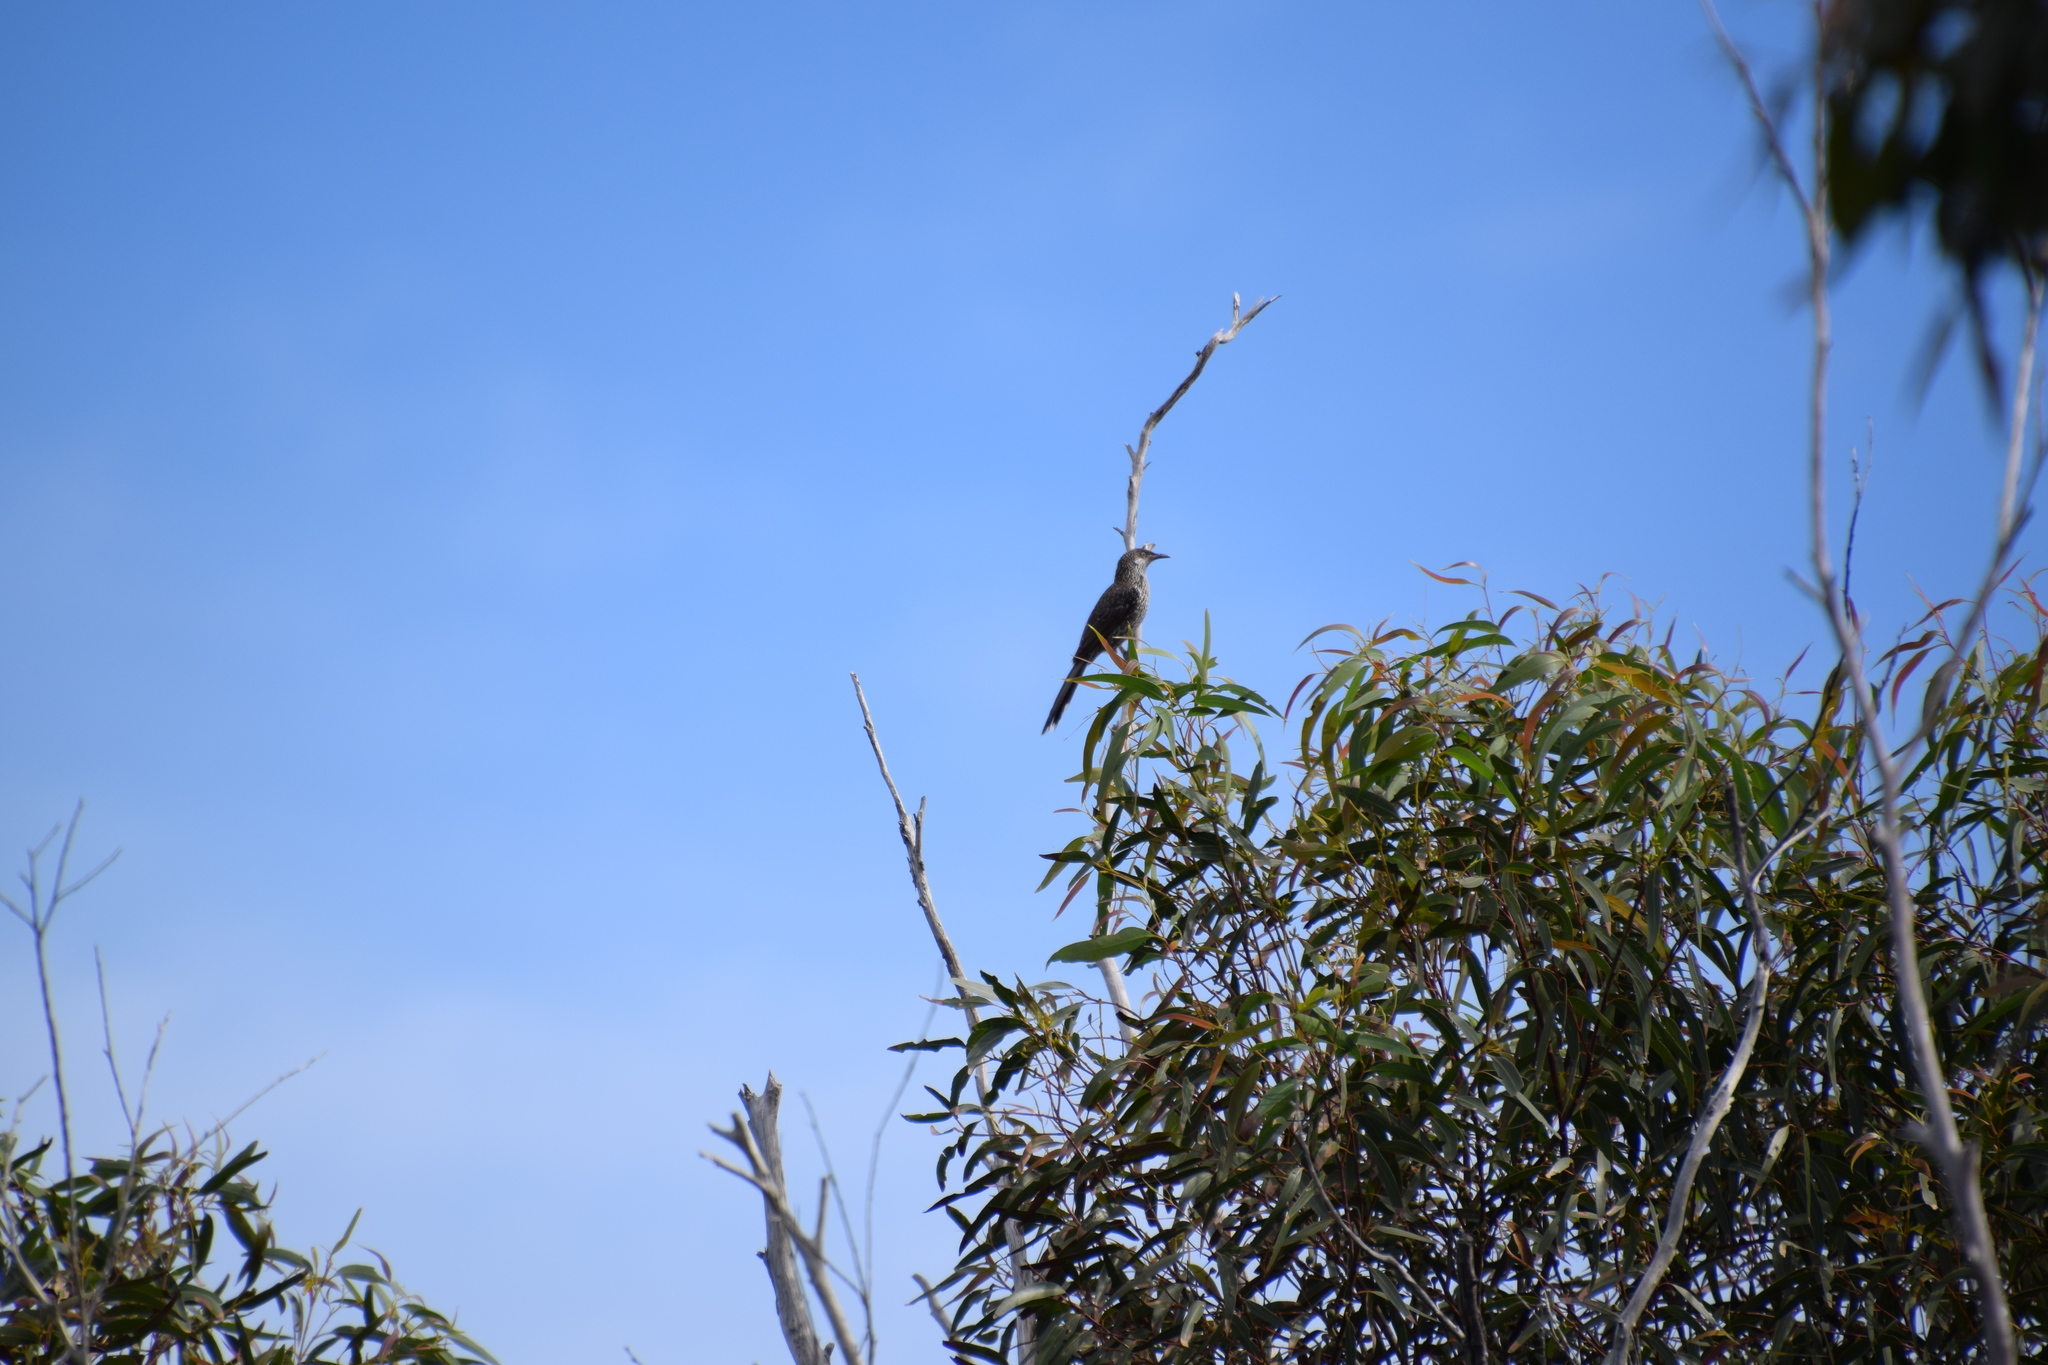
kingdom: Animalia
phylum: Chordata
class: Aves
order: Passeriformes
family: Meliphagidae
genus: Anthochaera
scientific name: Anthochaera chrysoptera
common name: Little wattlebird
